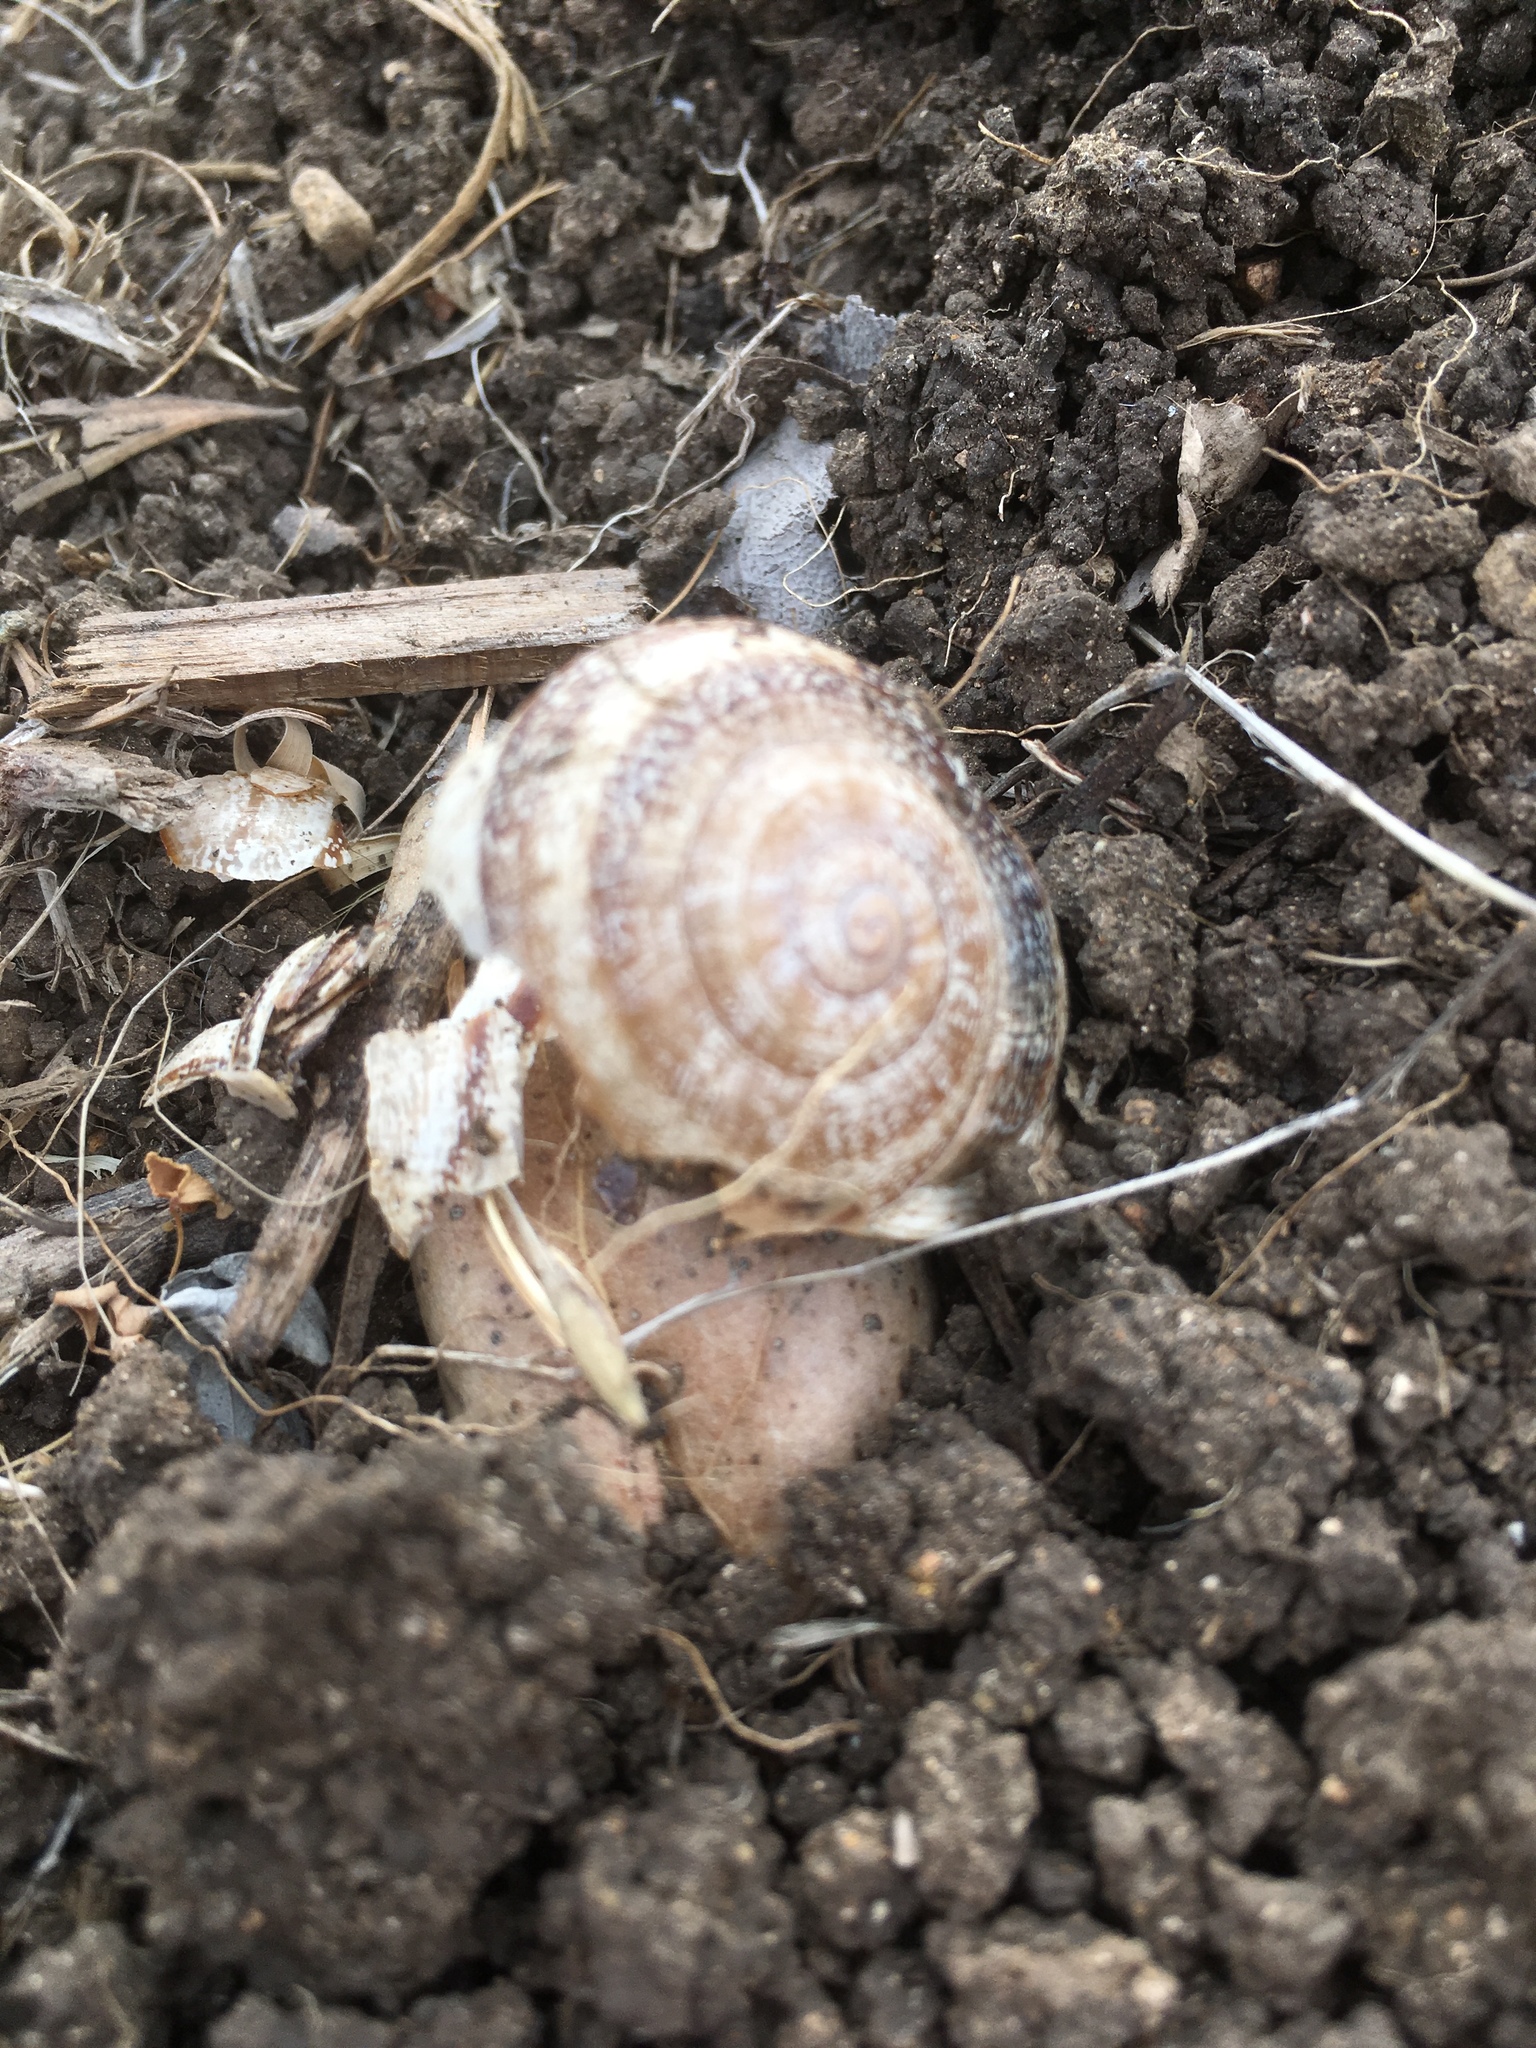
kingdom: Animalia
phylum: Mollusca
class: Gastropoda
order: Stylommatophora
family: Helicidae
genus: Otala
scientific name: Otala lactea
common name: Milk snail
